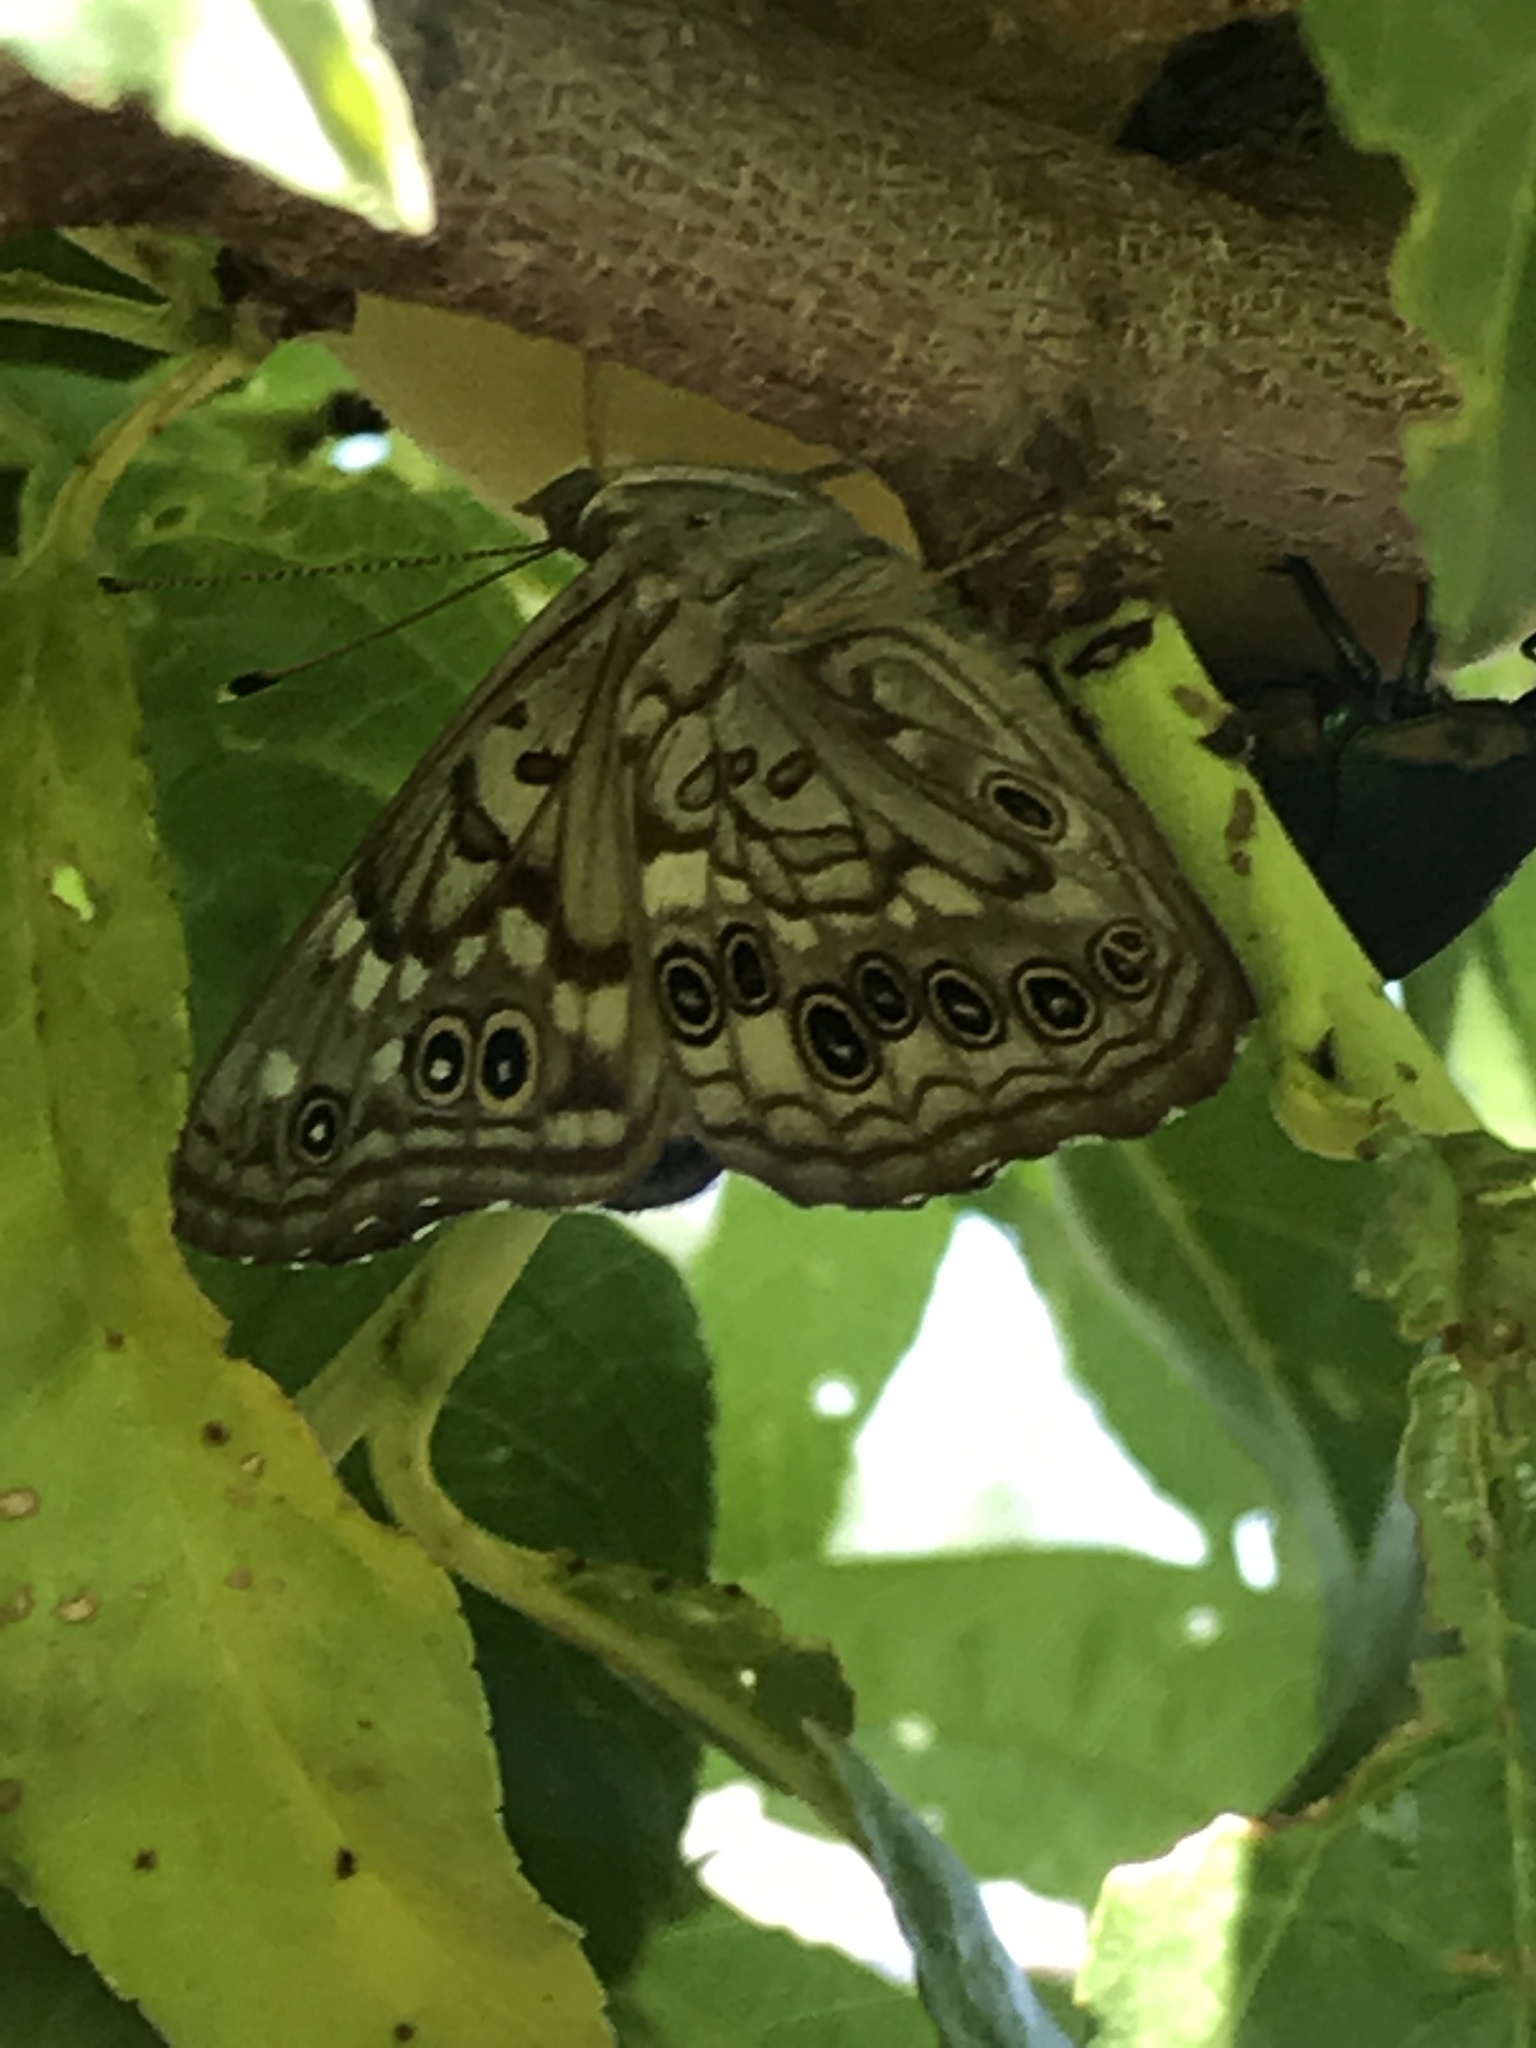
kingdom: Animalia
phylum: Arthropoda
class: Insecta
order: Lepidoptera
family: Nymphalidae
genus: Asterocampa
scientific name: Asterocampa celtis
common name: Hackberry emperor
